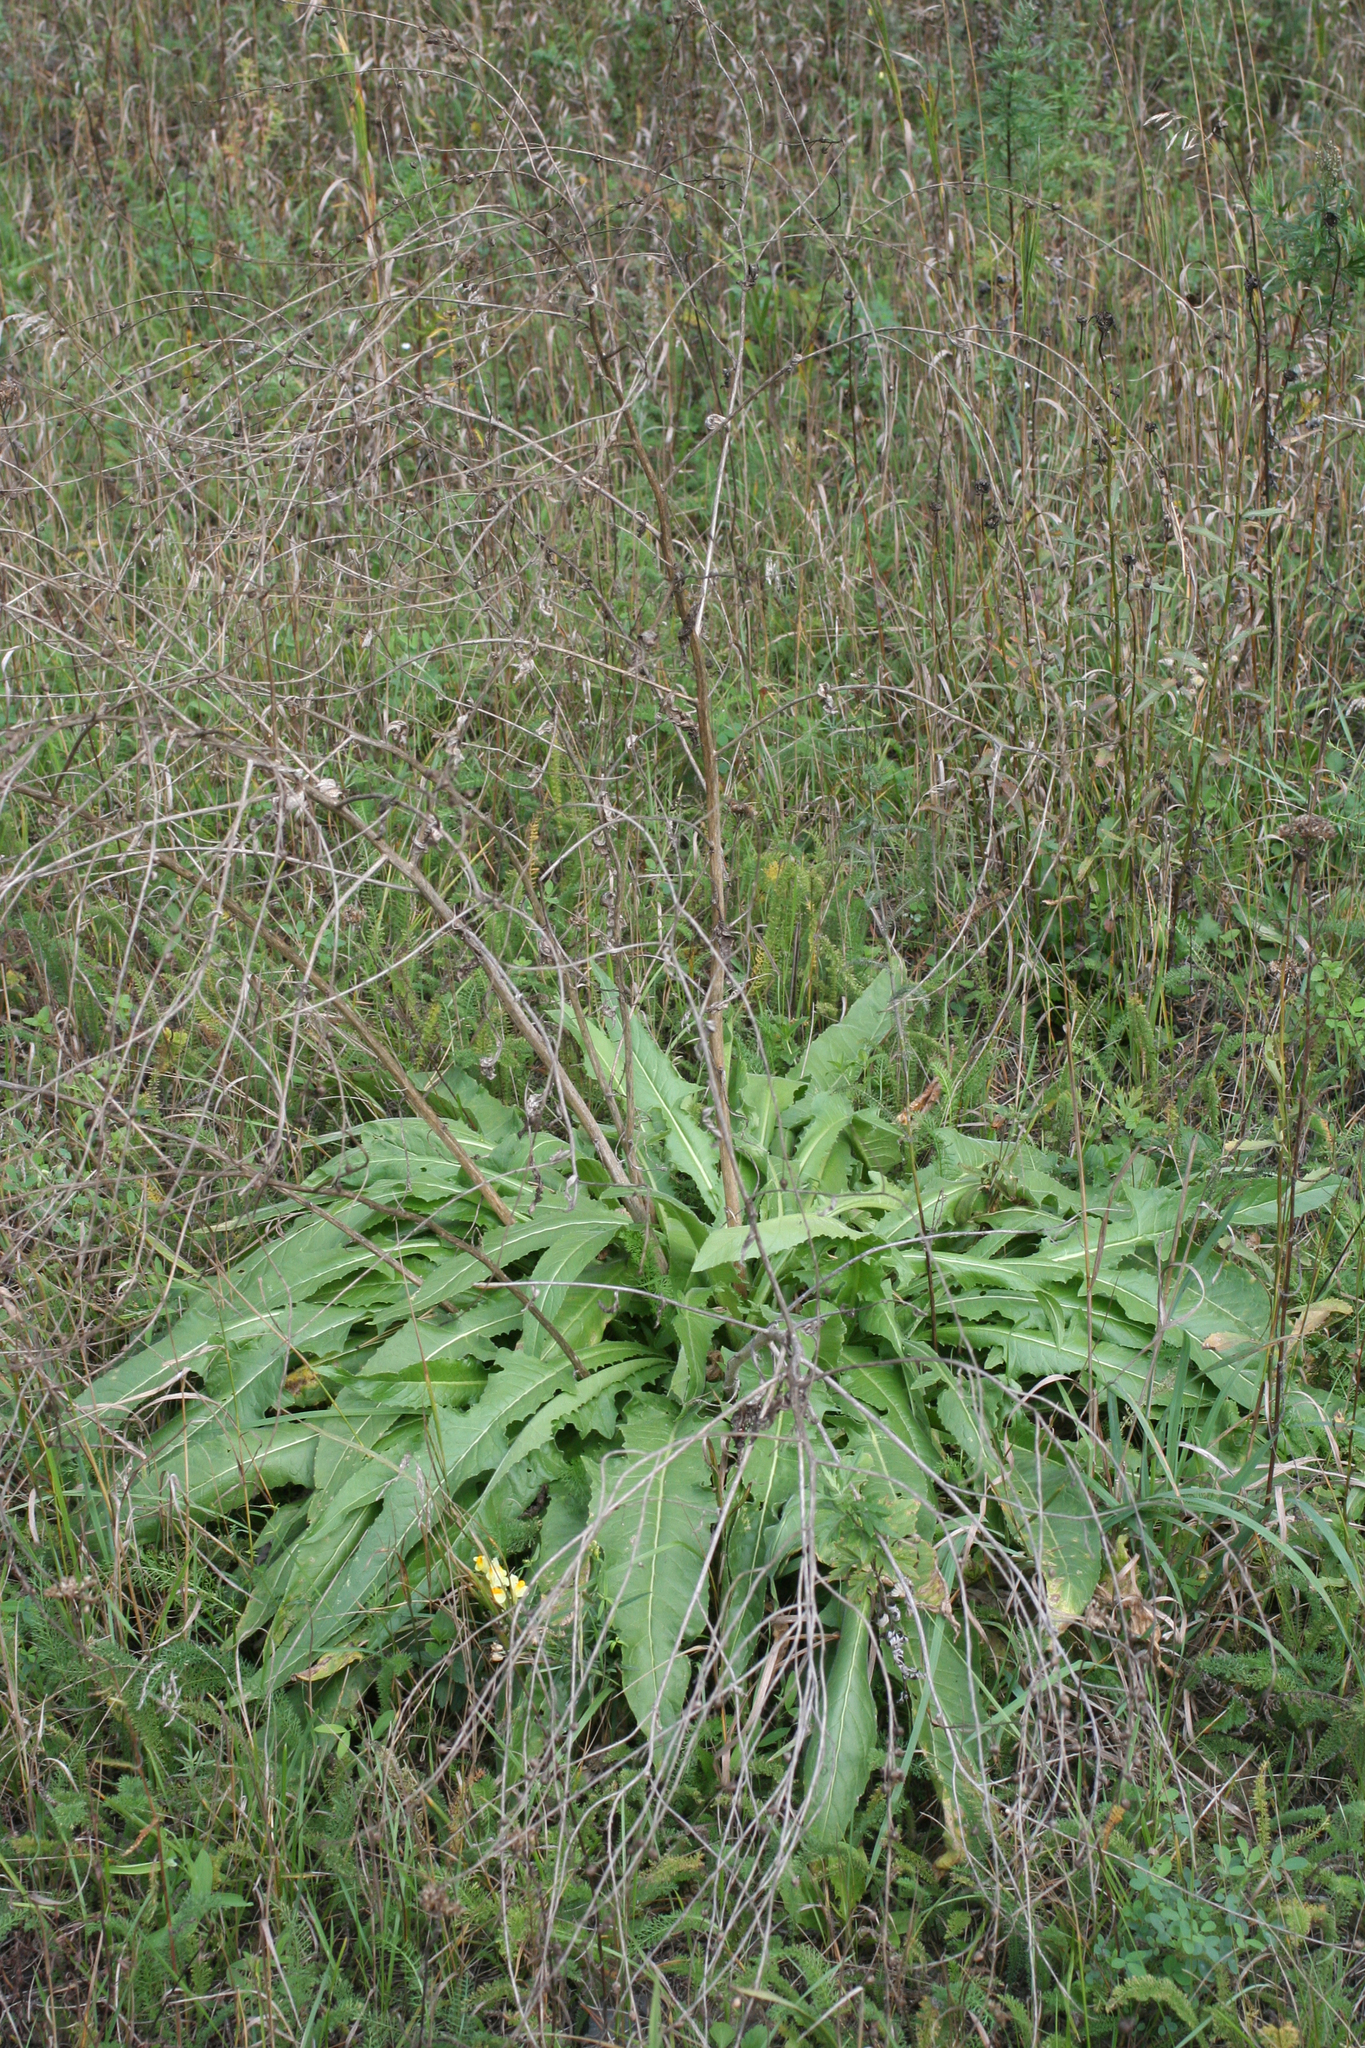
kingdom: Plantae
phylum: Tracheophyta
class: Magnoliopsida
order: Brassicales
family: Brassicaceae
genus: Bunias
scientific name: Bunias orientalis
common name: Warty-cabbage
